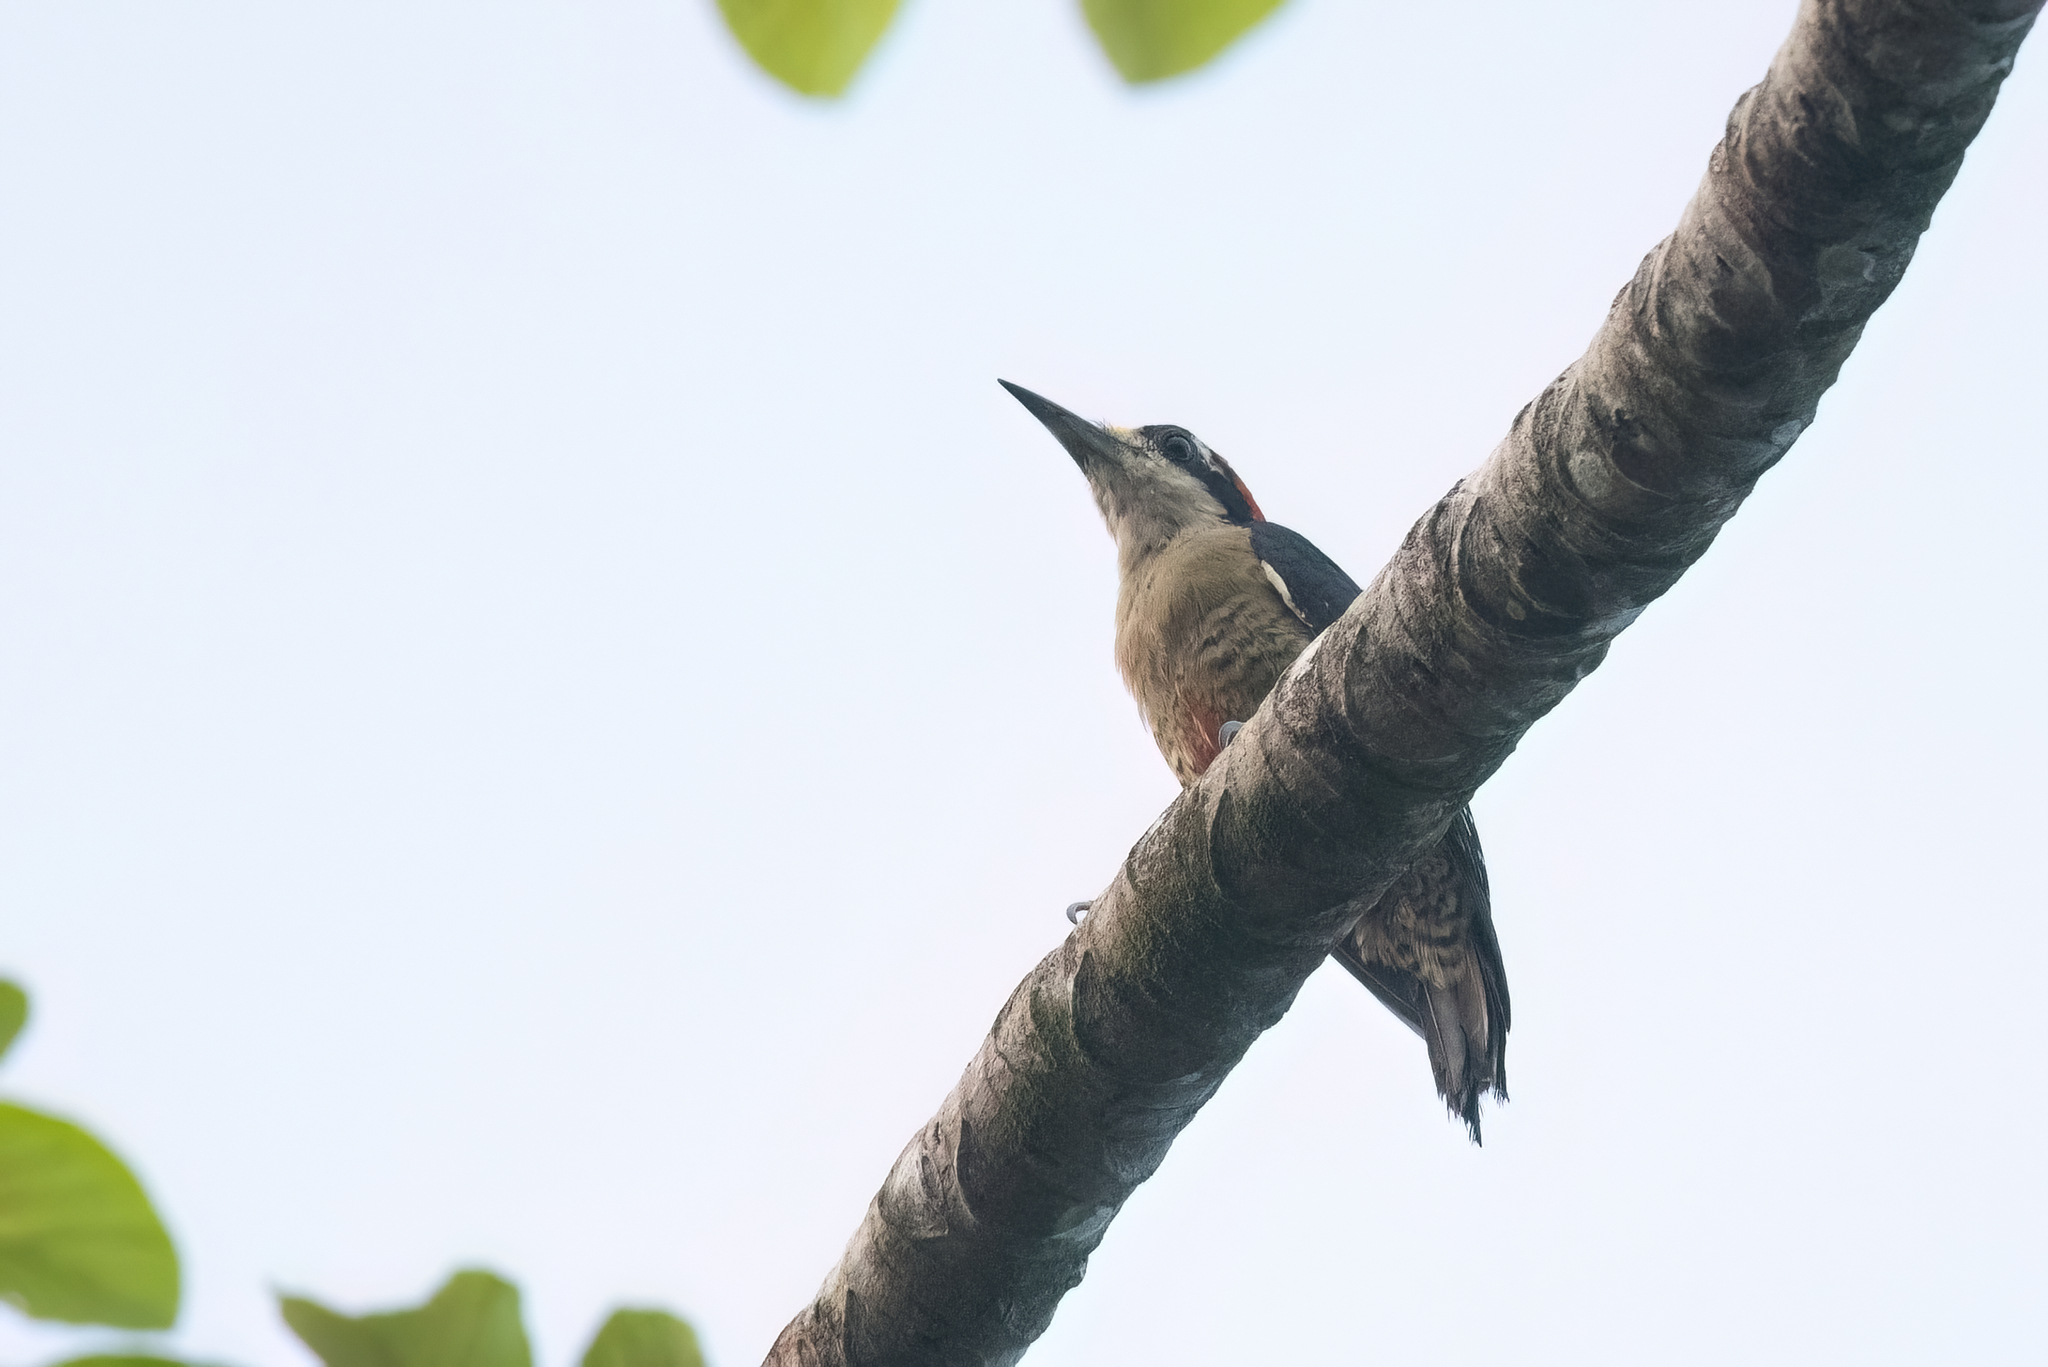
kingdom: Animalia
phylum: Chordata
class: Aves
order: Piciformes
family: Picidae
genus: Melanerpes
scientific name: Melanerpes pucherani
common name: Black-cheeked woodpecker
